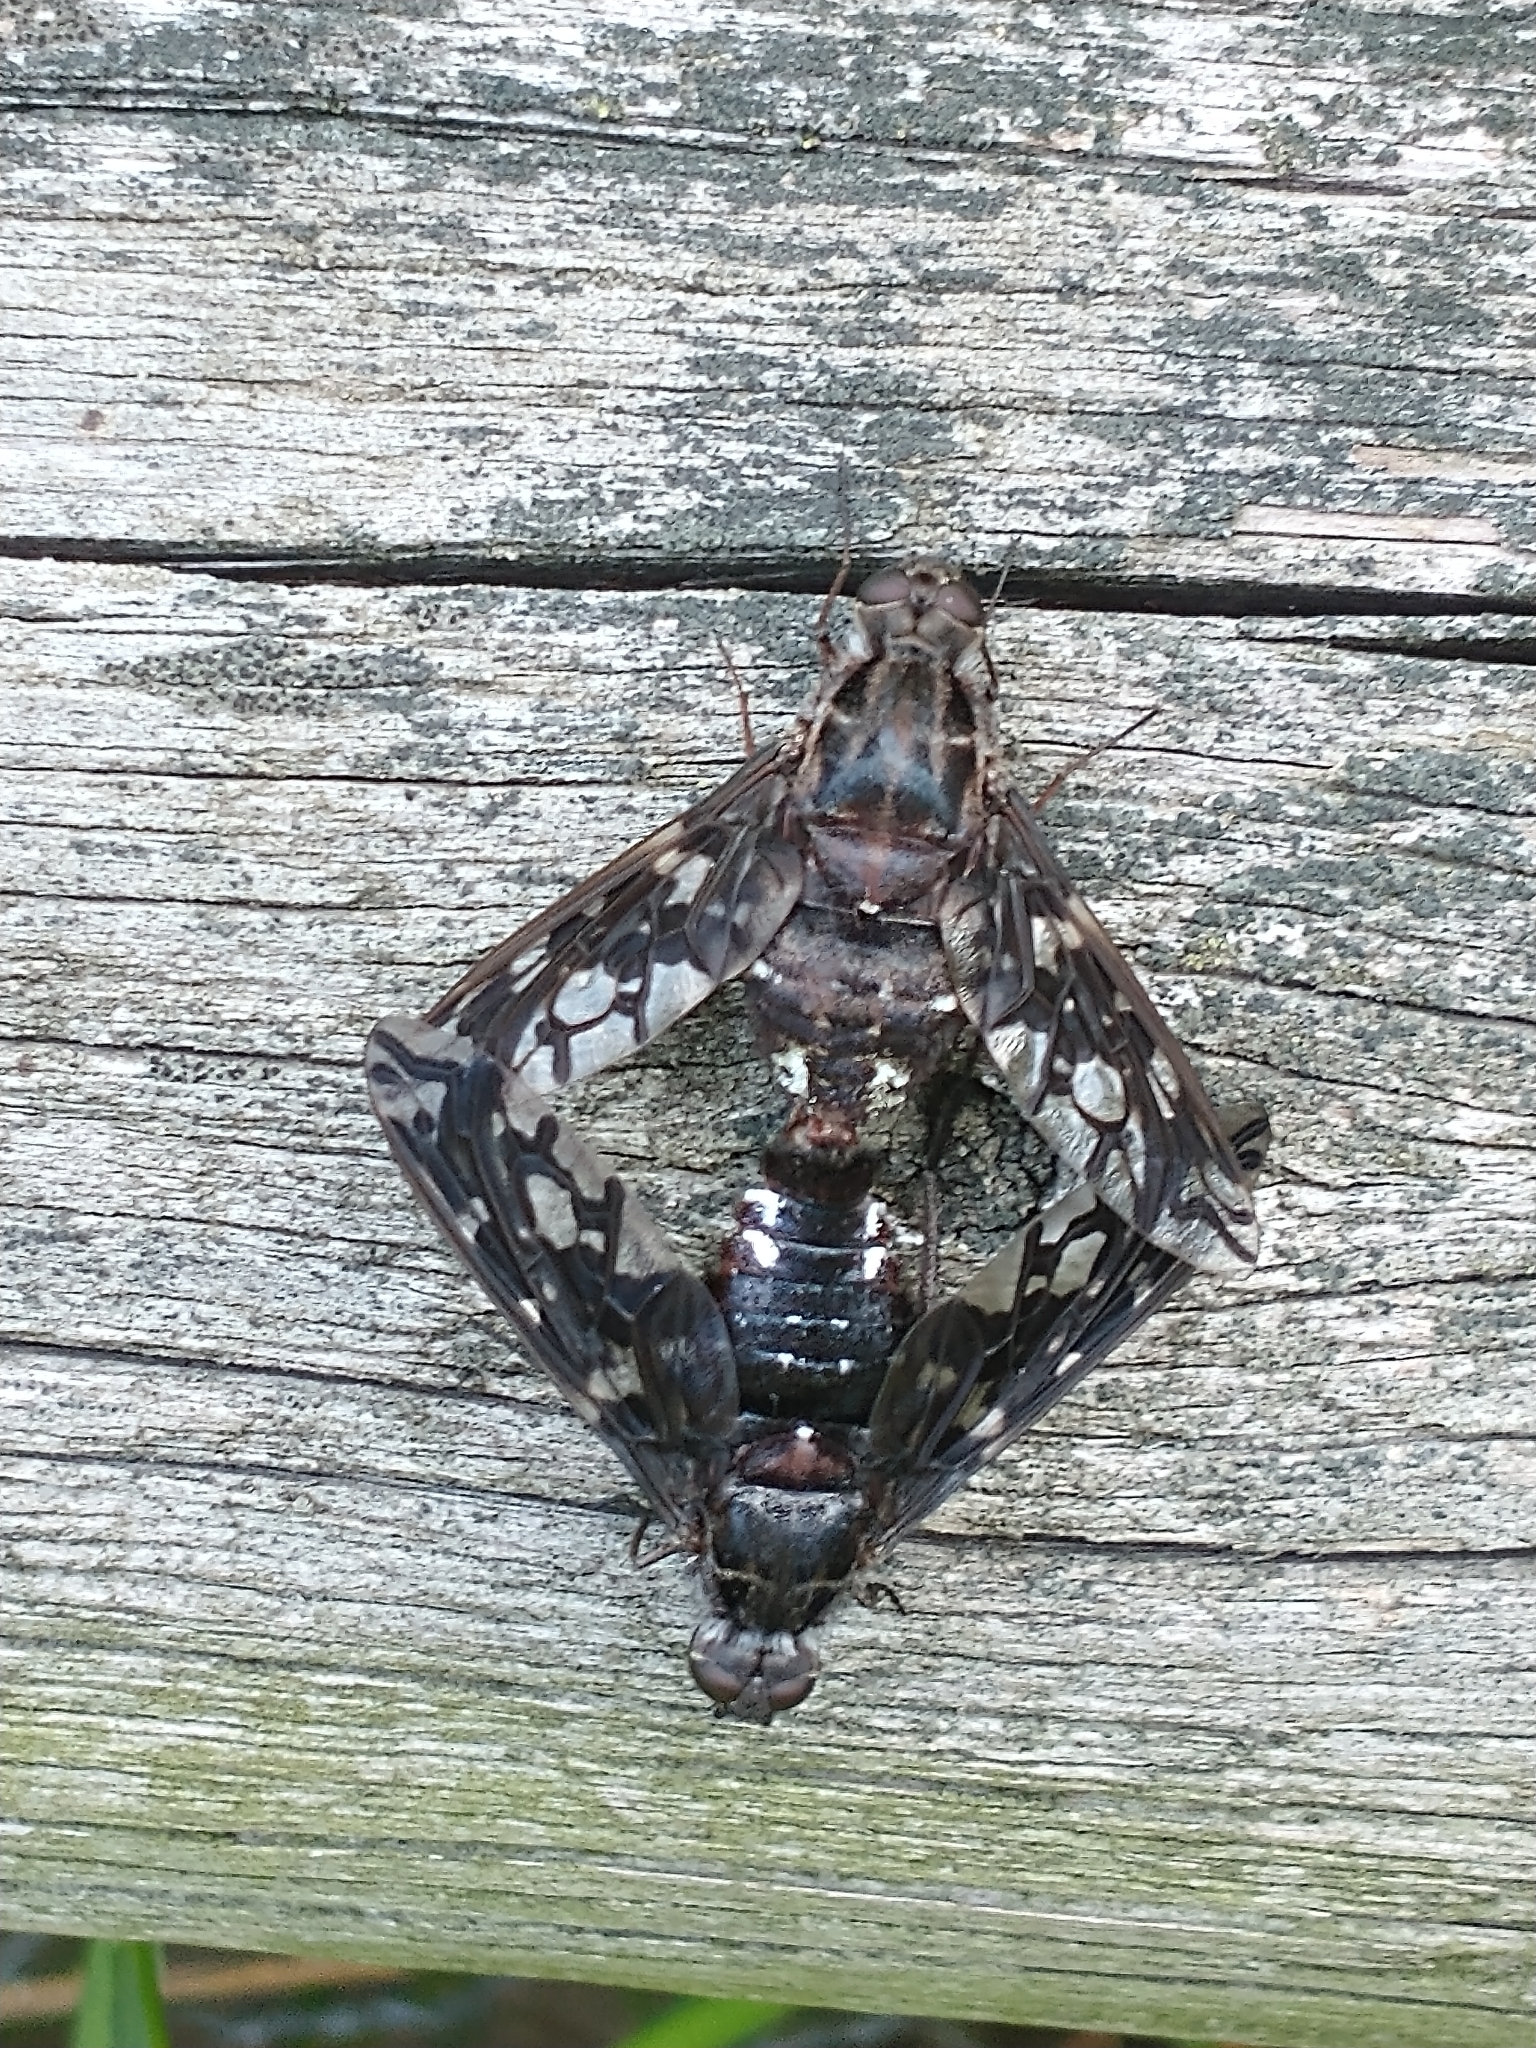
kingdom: Animalia
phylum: Arthropoda
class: Insecta
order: Diptera
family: Bombyliidae
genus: Xenox
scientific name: Xenox tigrinus
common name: Tiger bee fly
